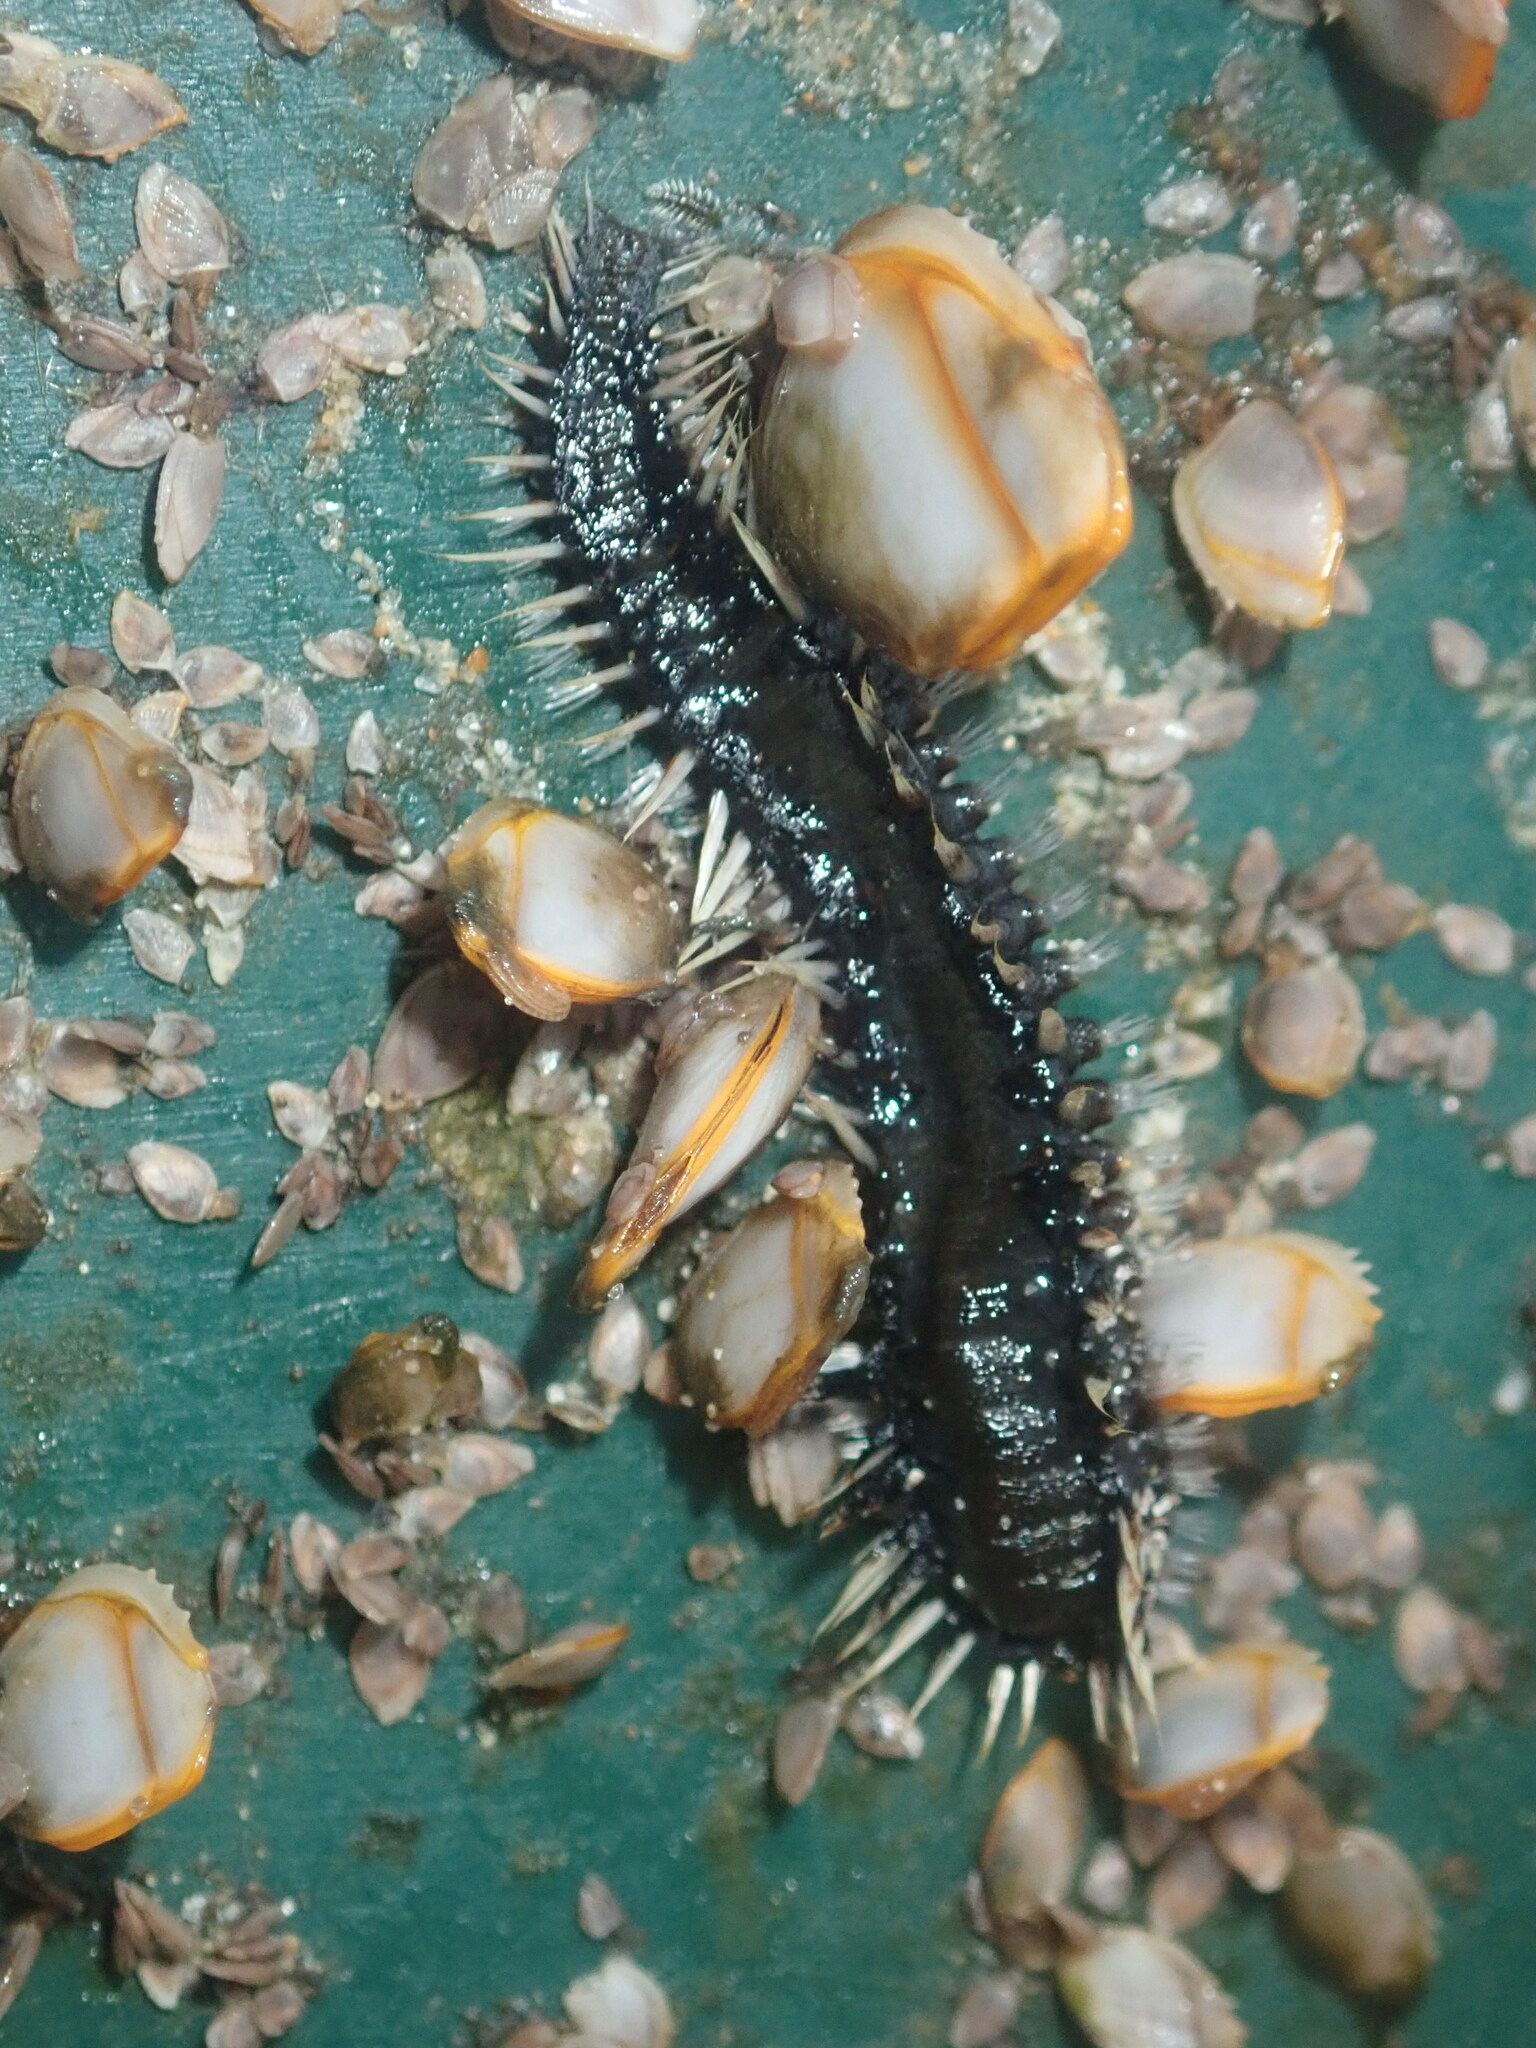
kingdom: Animalia
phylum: Annelida
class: Polychaeta
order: Amphinomida
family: Amphinomidae
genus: Amphinome
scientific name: Amphinome rostrata
